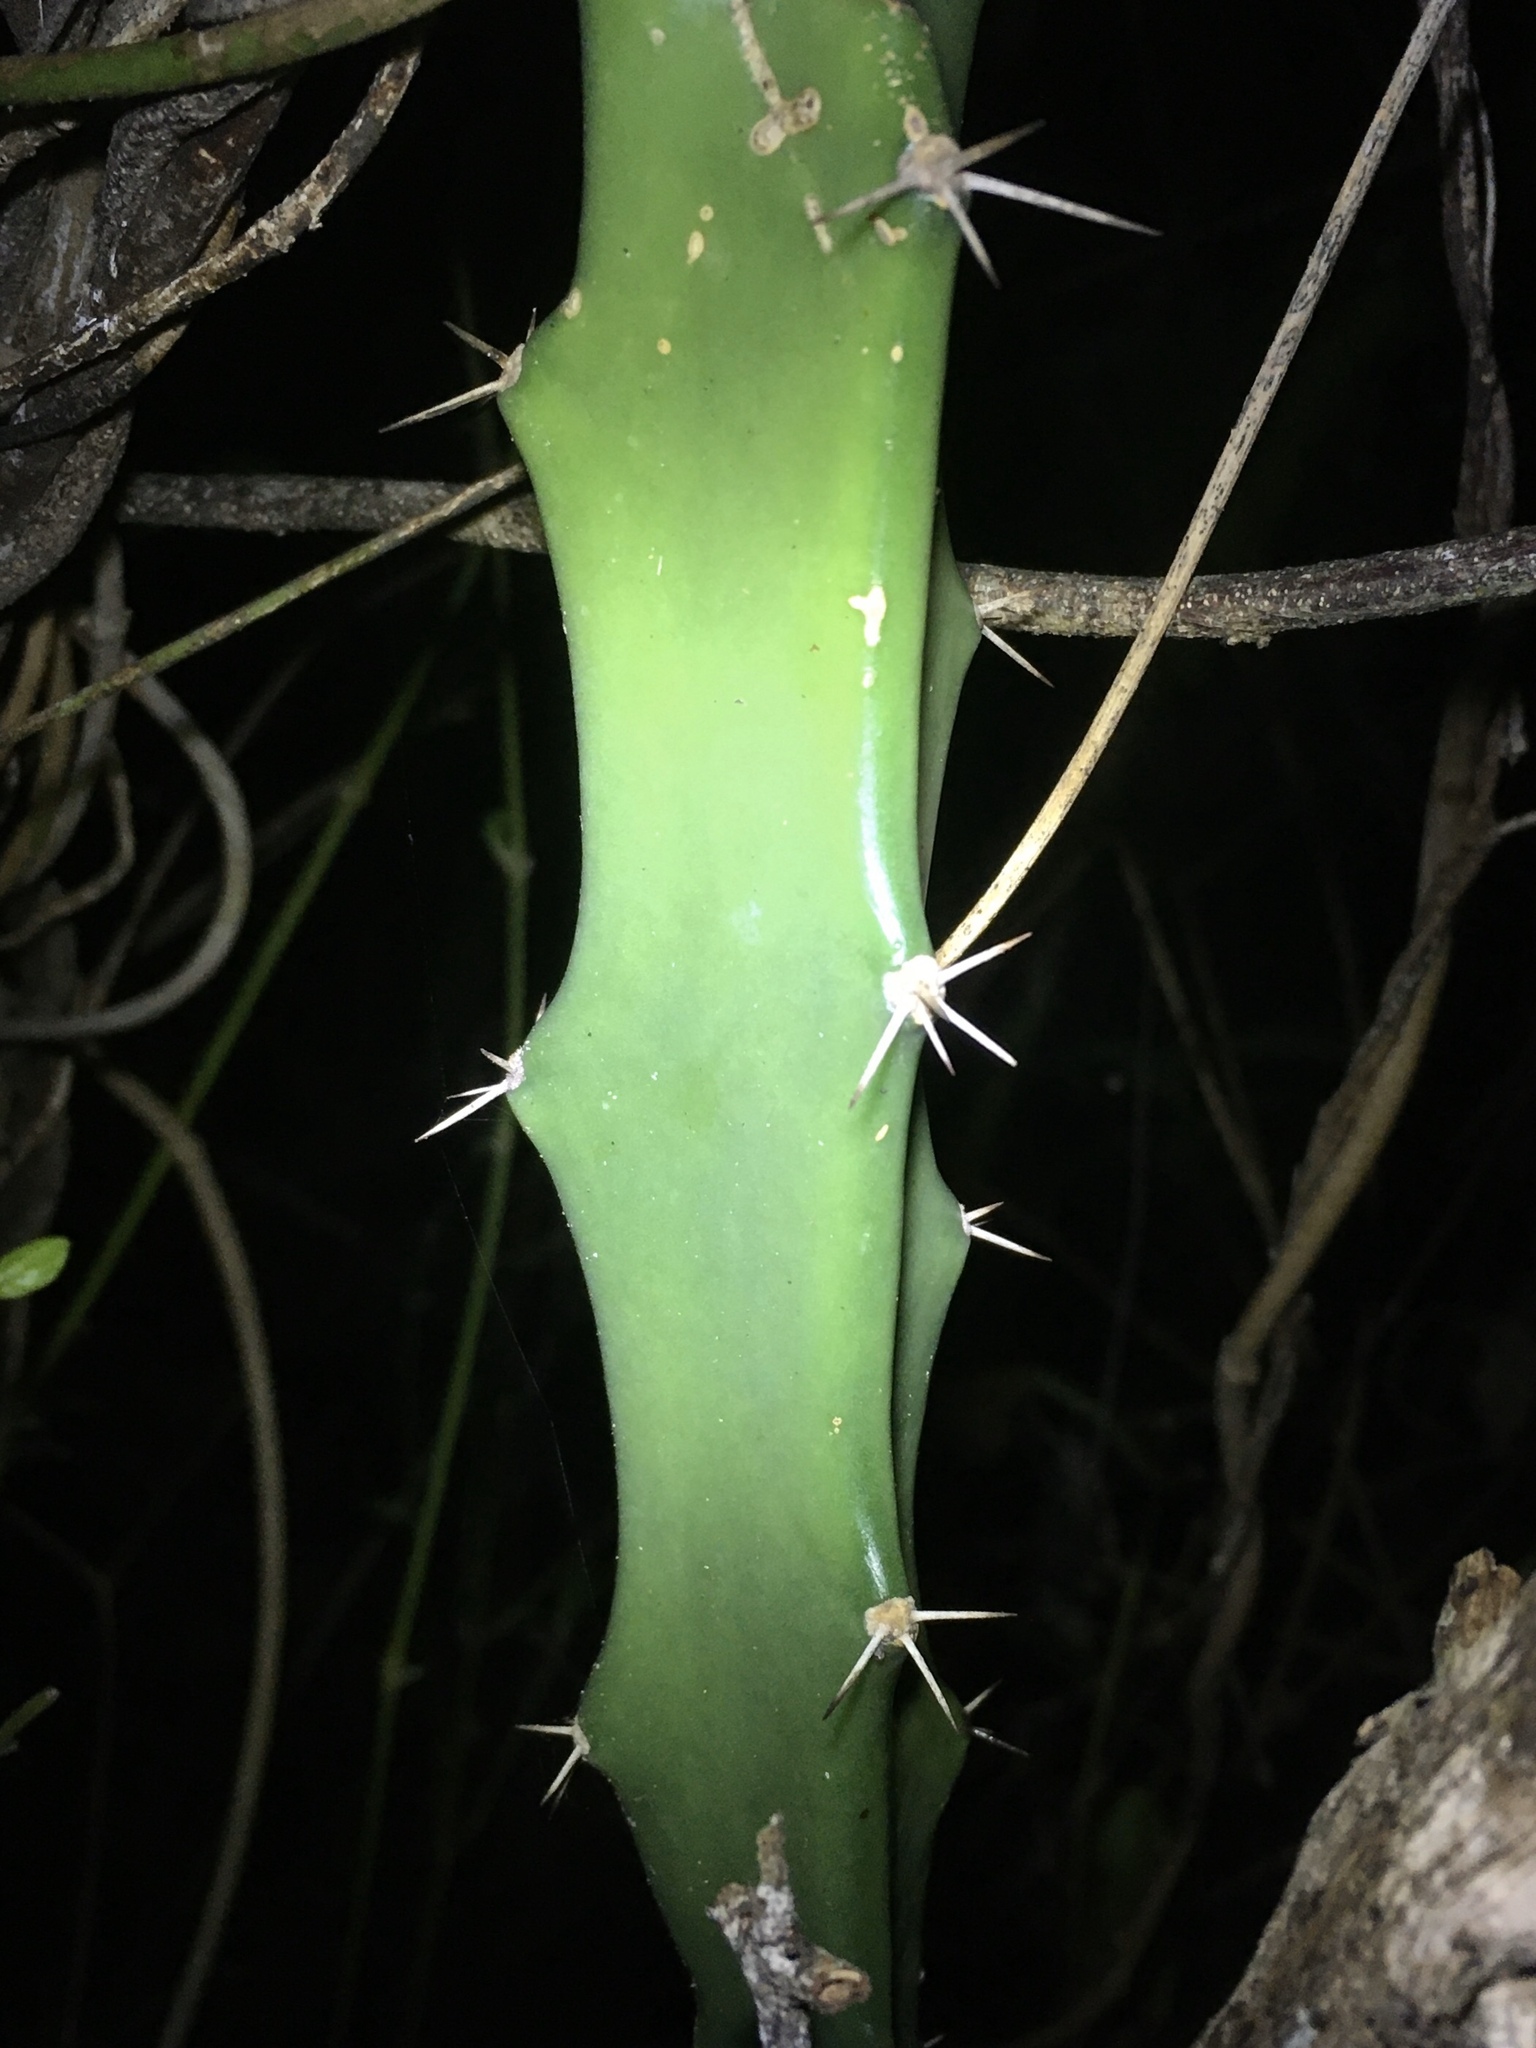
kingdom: Plantae
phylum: Tracheophyta
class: Magnoliopsida
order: Caryophyllales
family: Cactaceae
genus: Acanthocereus
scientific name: Acanthocereus tetragonus
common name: Triangle cactus
